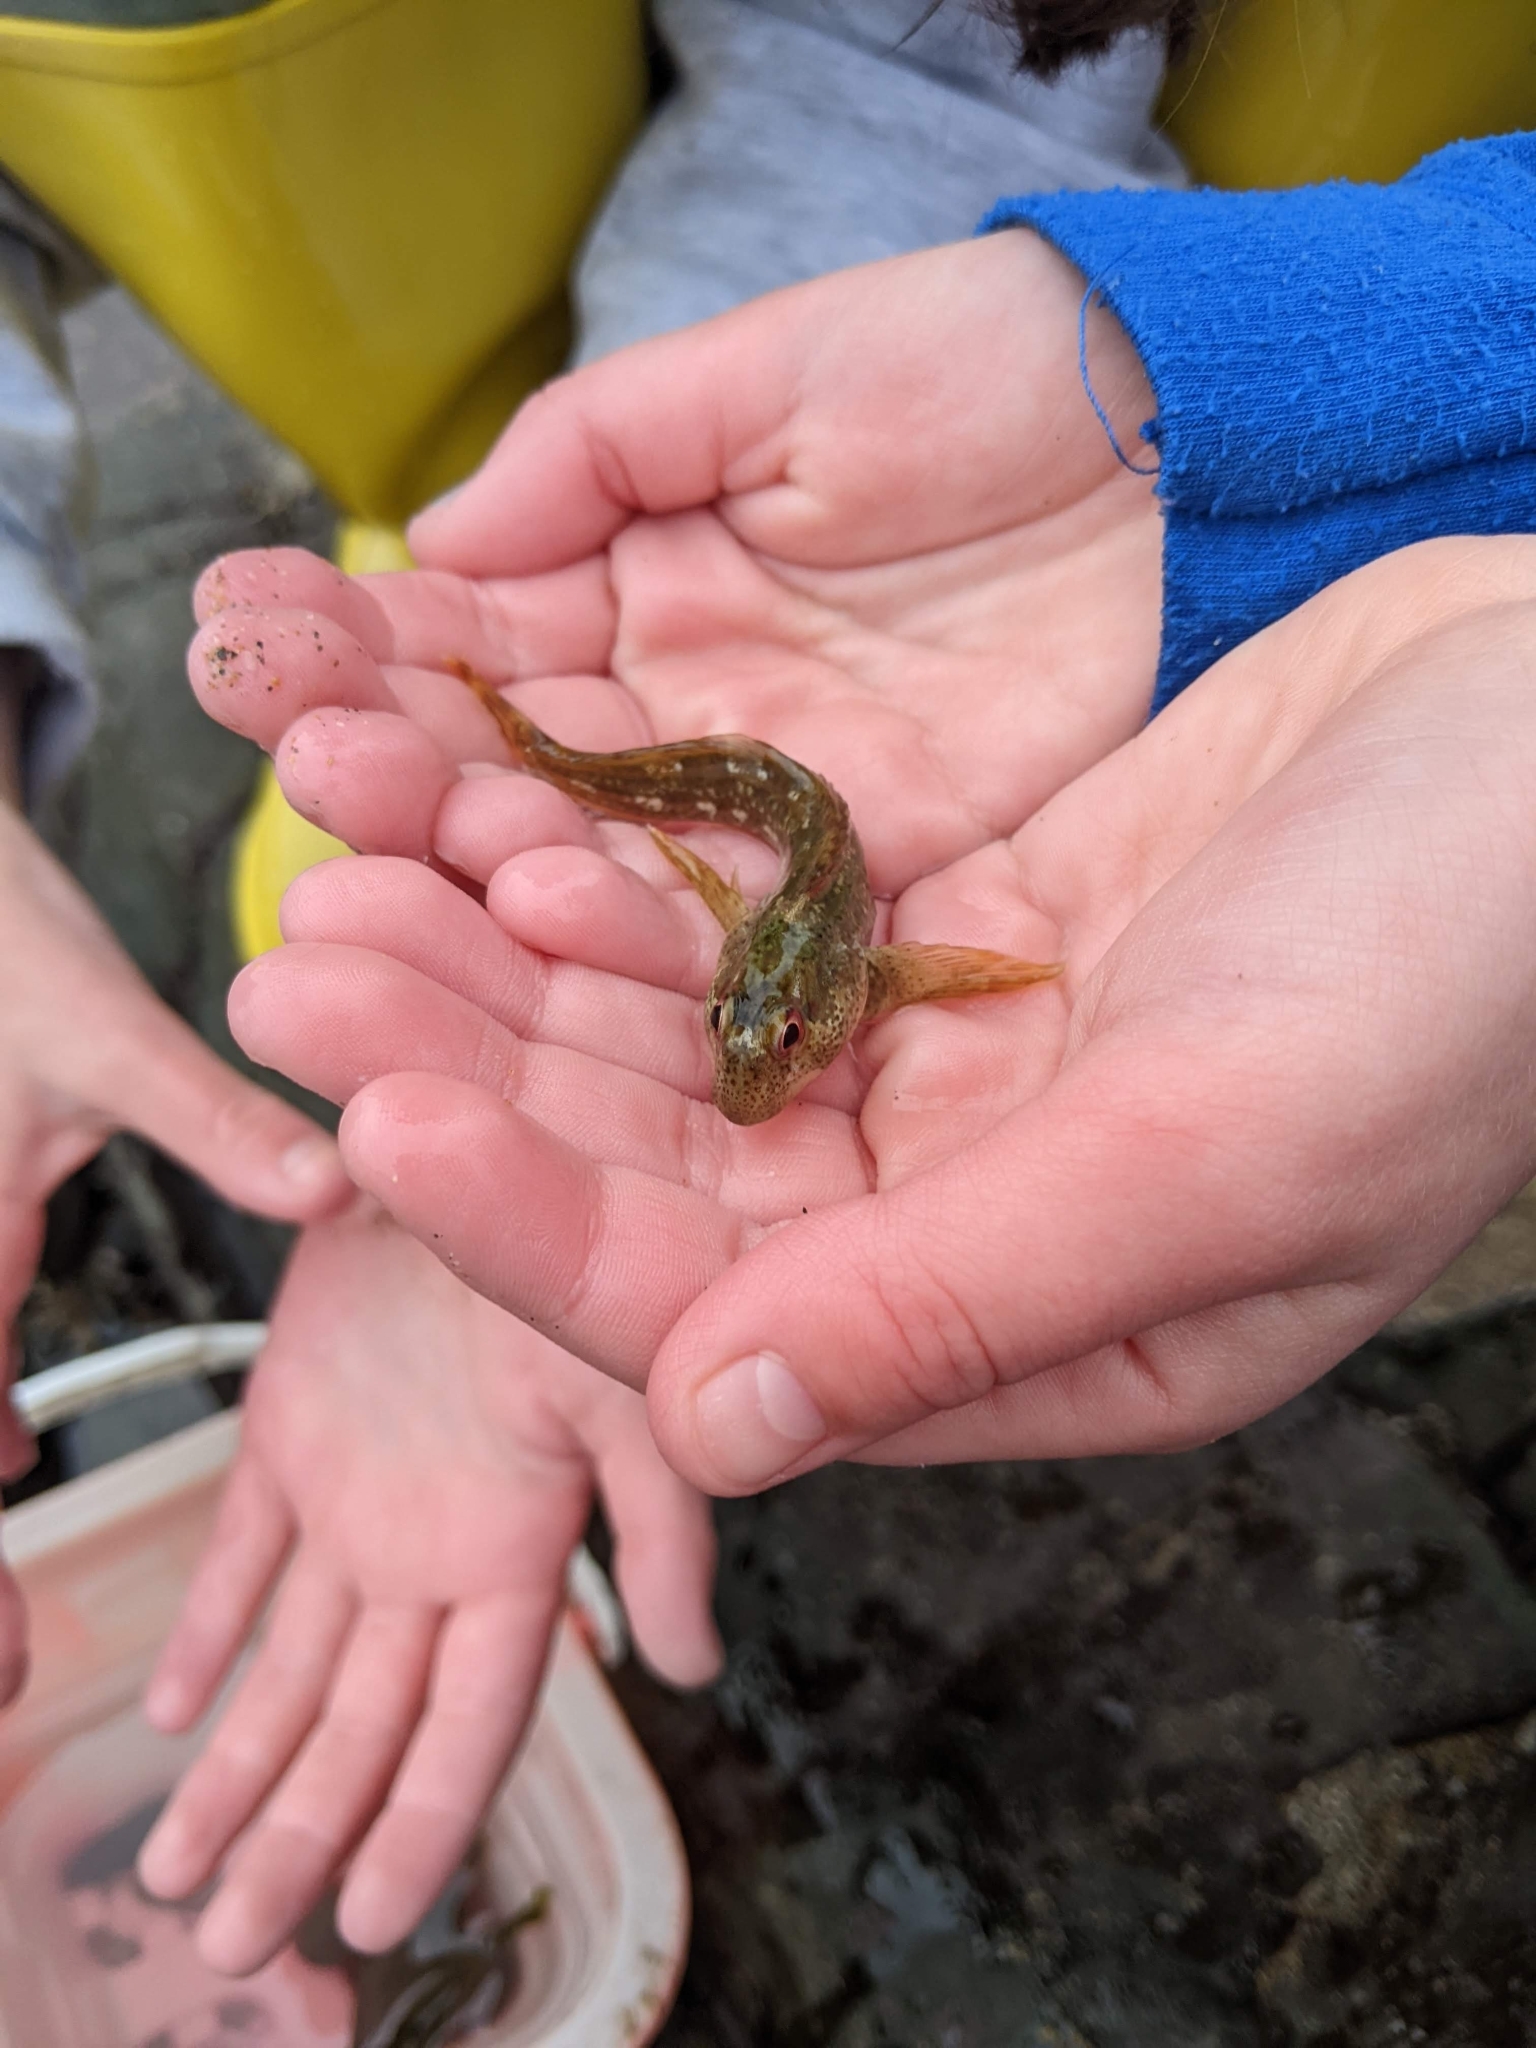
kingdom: Animalia
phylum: Chordata
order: Perciformes
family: Blenniidae
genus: Lipophrys
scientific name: Lipophrys pholis
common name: Shanny
